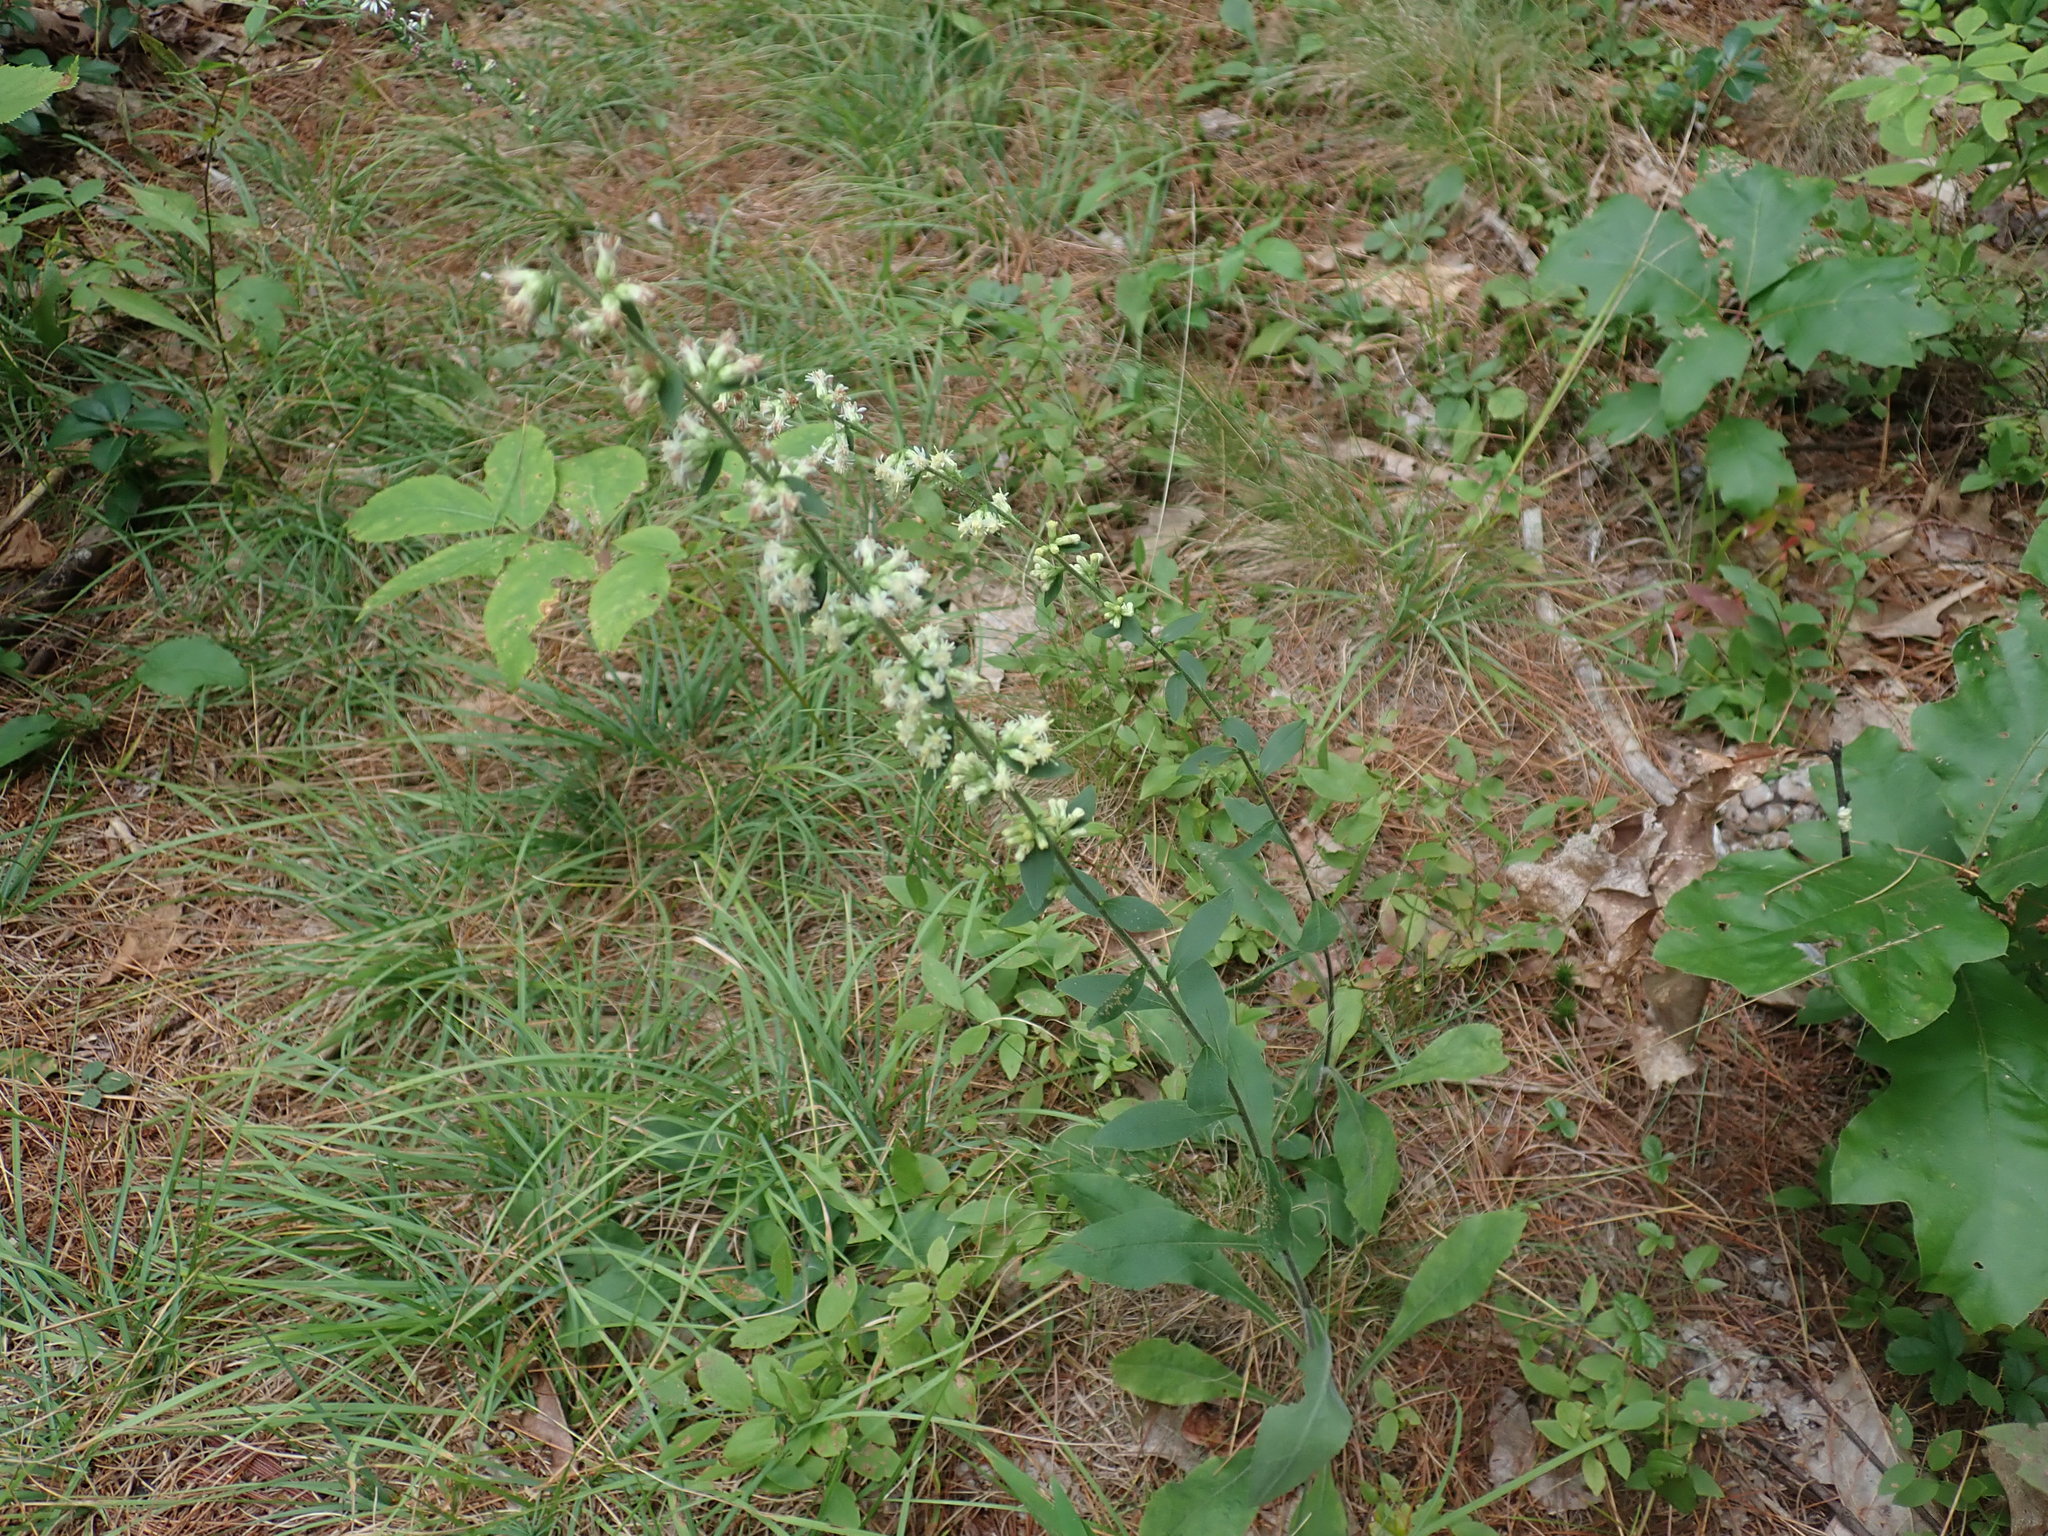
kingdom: Plantae
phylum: Tracheophyta
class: Magnoliopsida
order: Asterales
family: Asteraceae
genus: Solidago
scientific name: Solidago bicolor
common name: Silverrod
